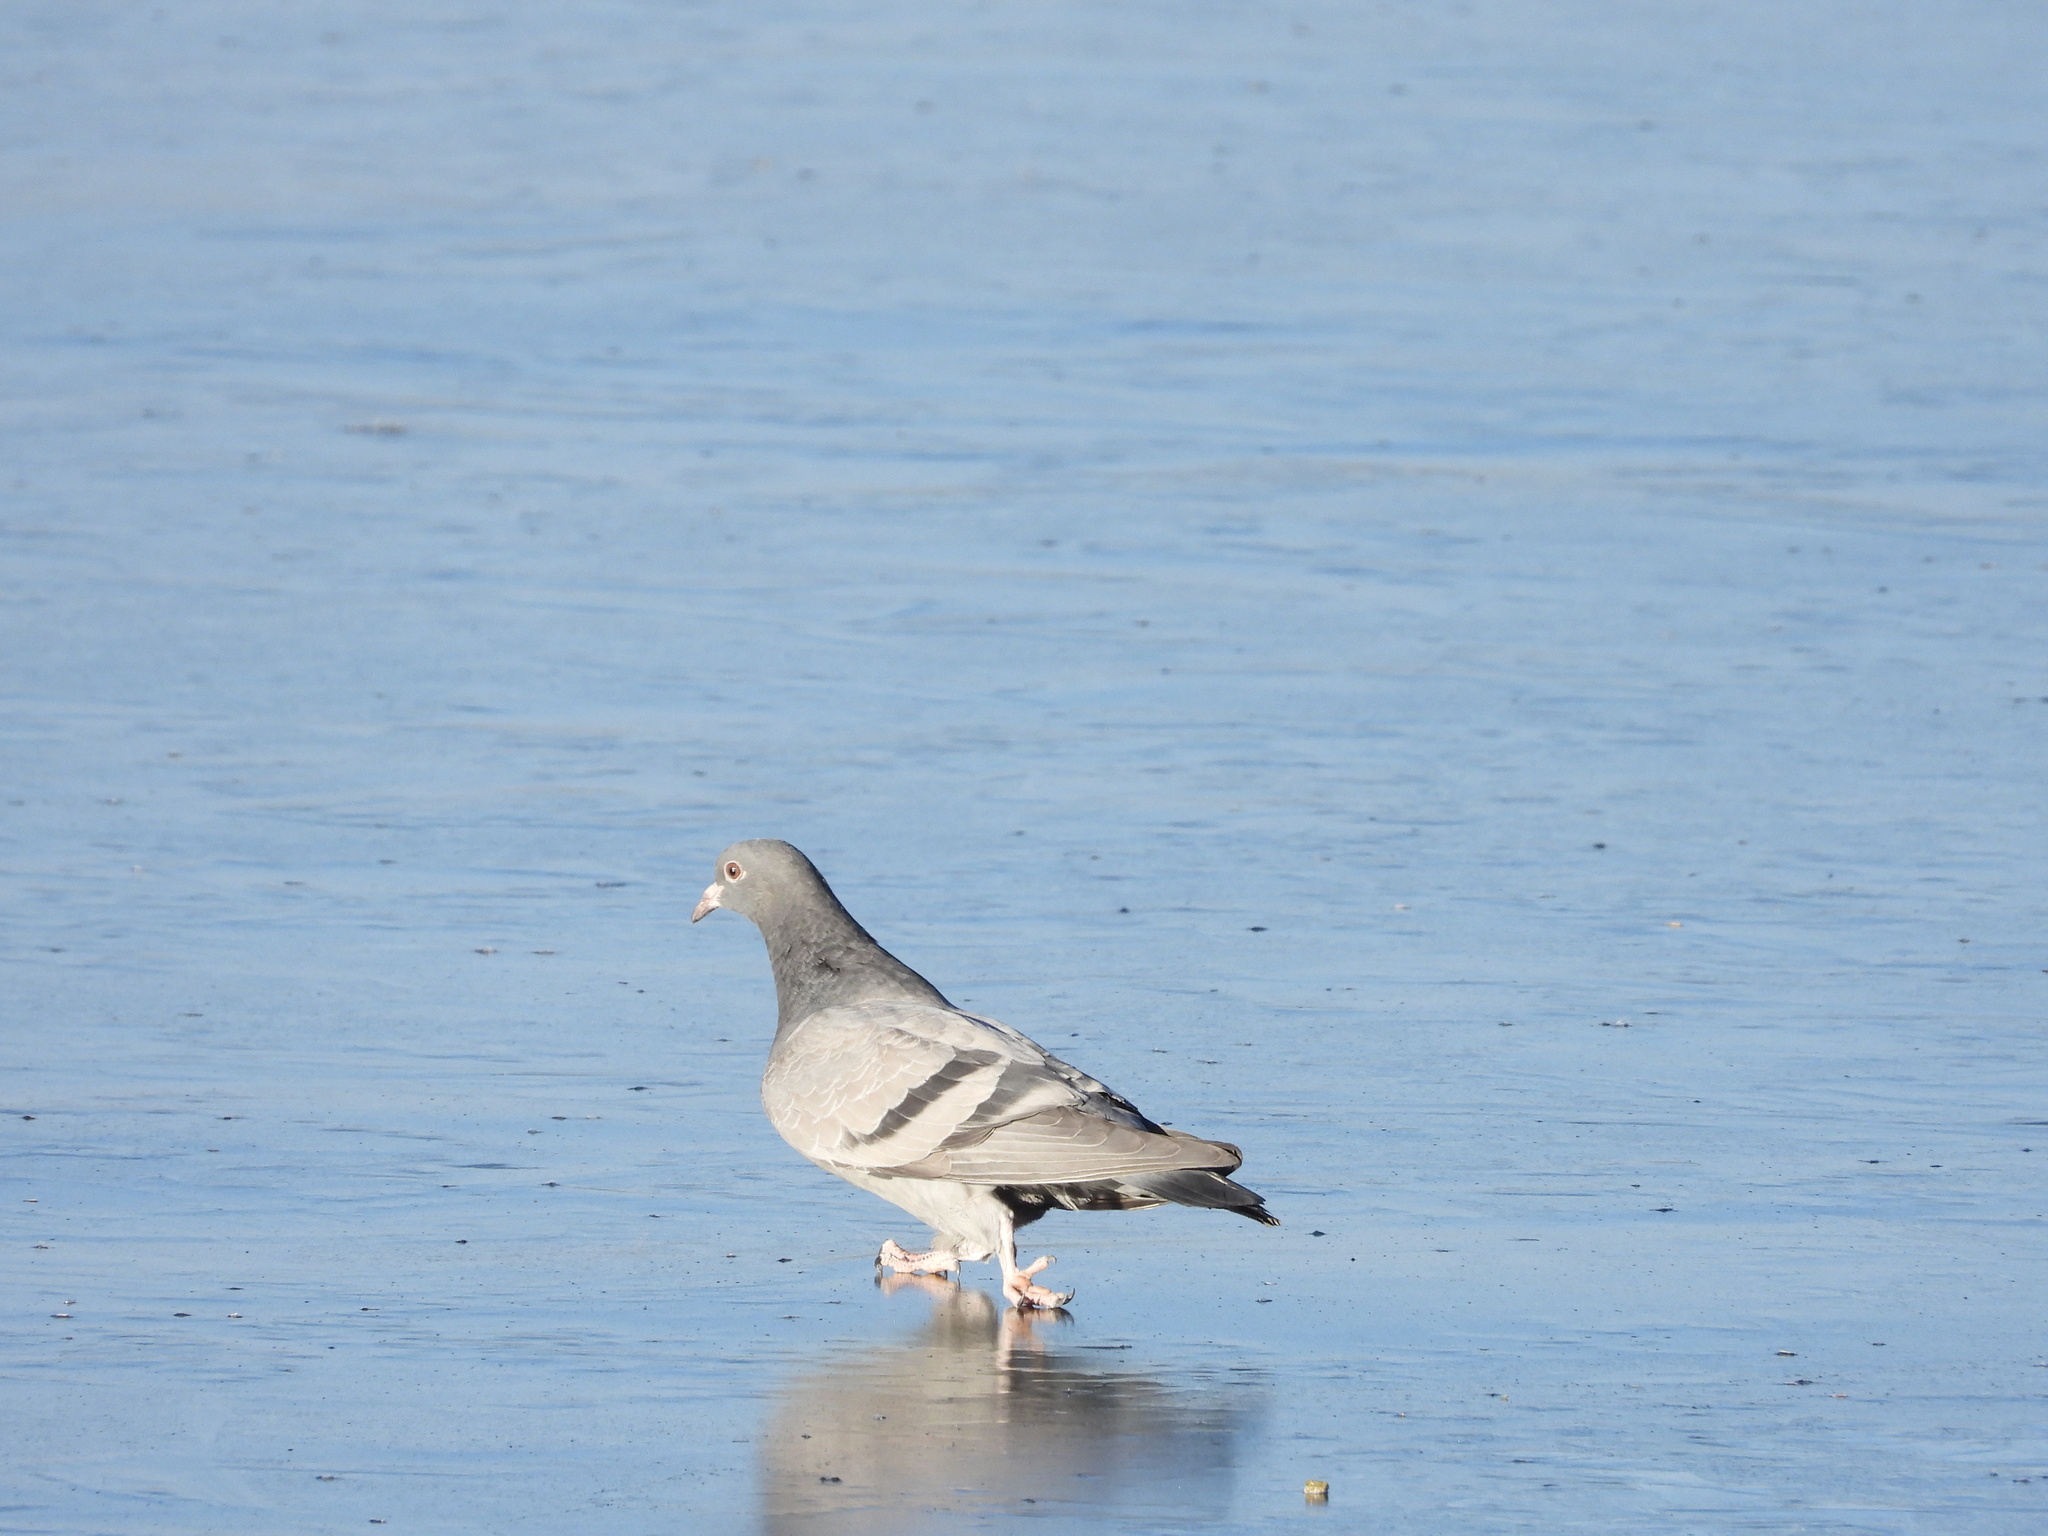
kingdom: Animalia
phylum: Chordata
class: Aves
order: Columbiformes
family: Columbidae
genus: Columba
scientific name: Columba livia
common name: Rock pigeon
